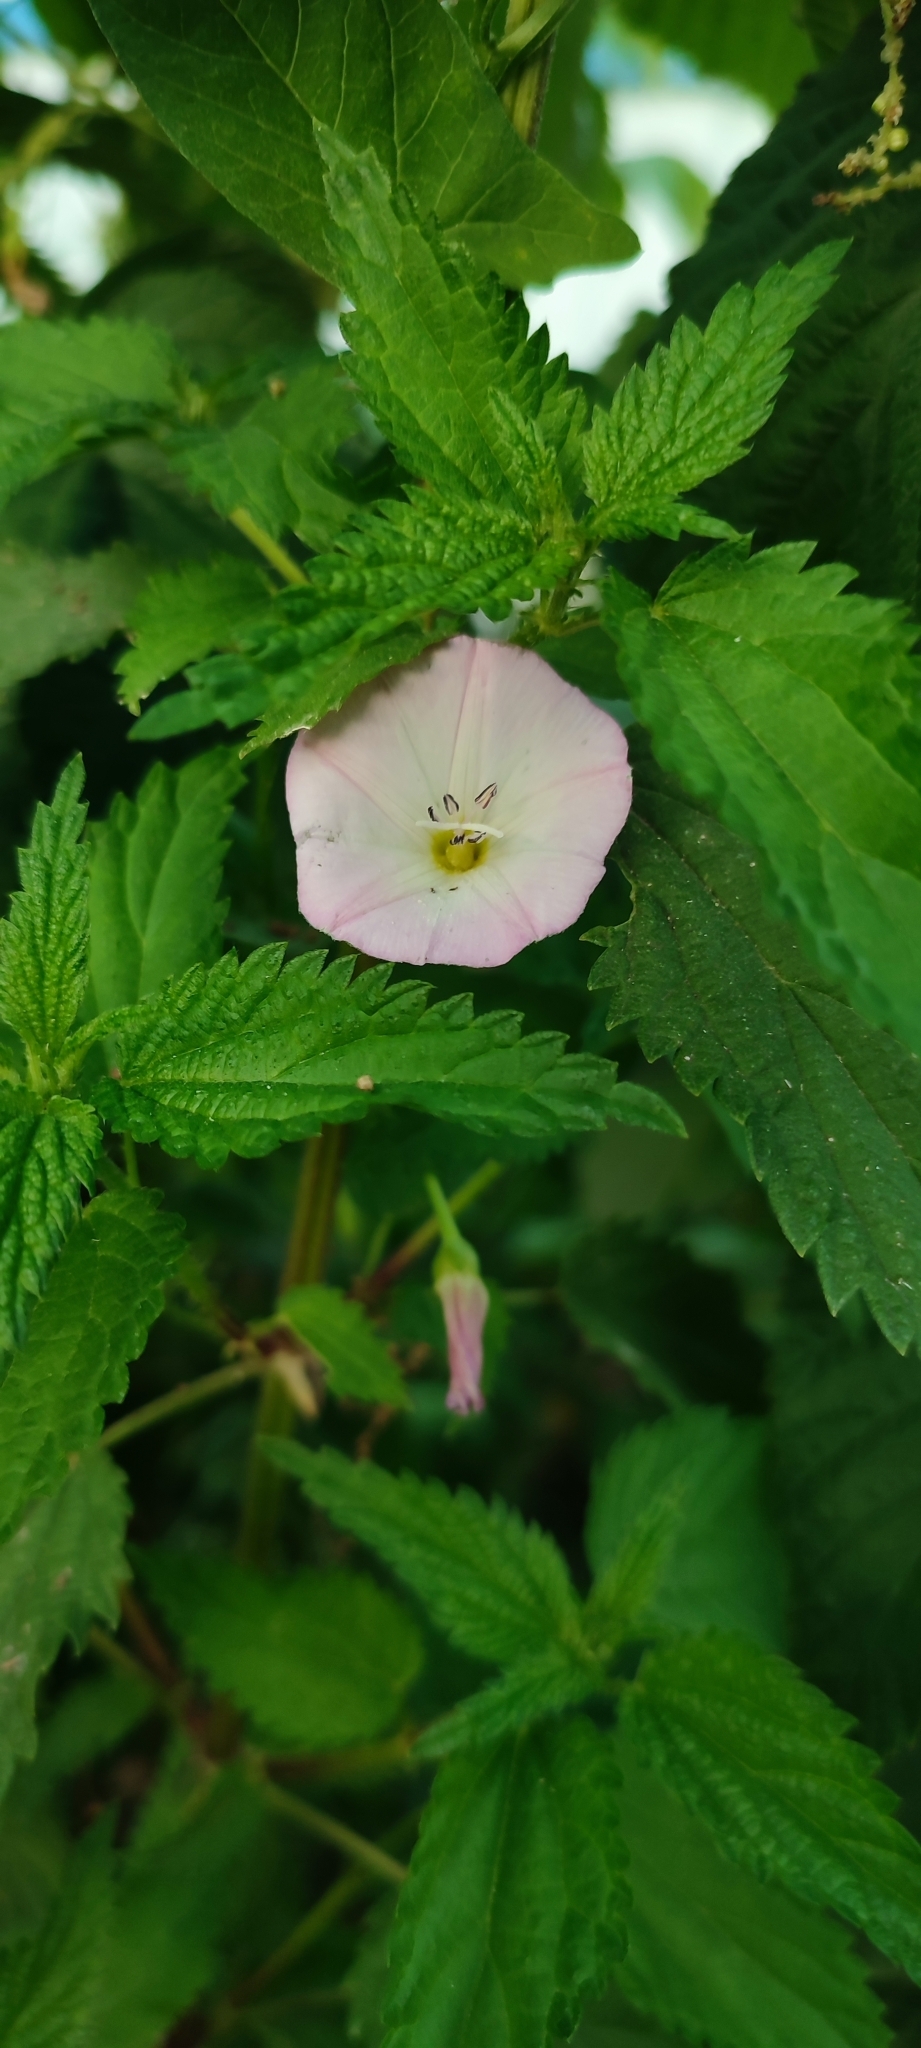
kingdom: Plantae
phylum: Tracheophyta
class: Magnoliopsida
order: Solanales
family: Convolvulaceae
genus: Convolvulus
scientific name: Convolvulus arvensis
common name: Field bindweed
